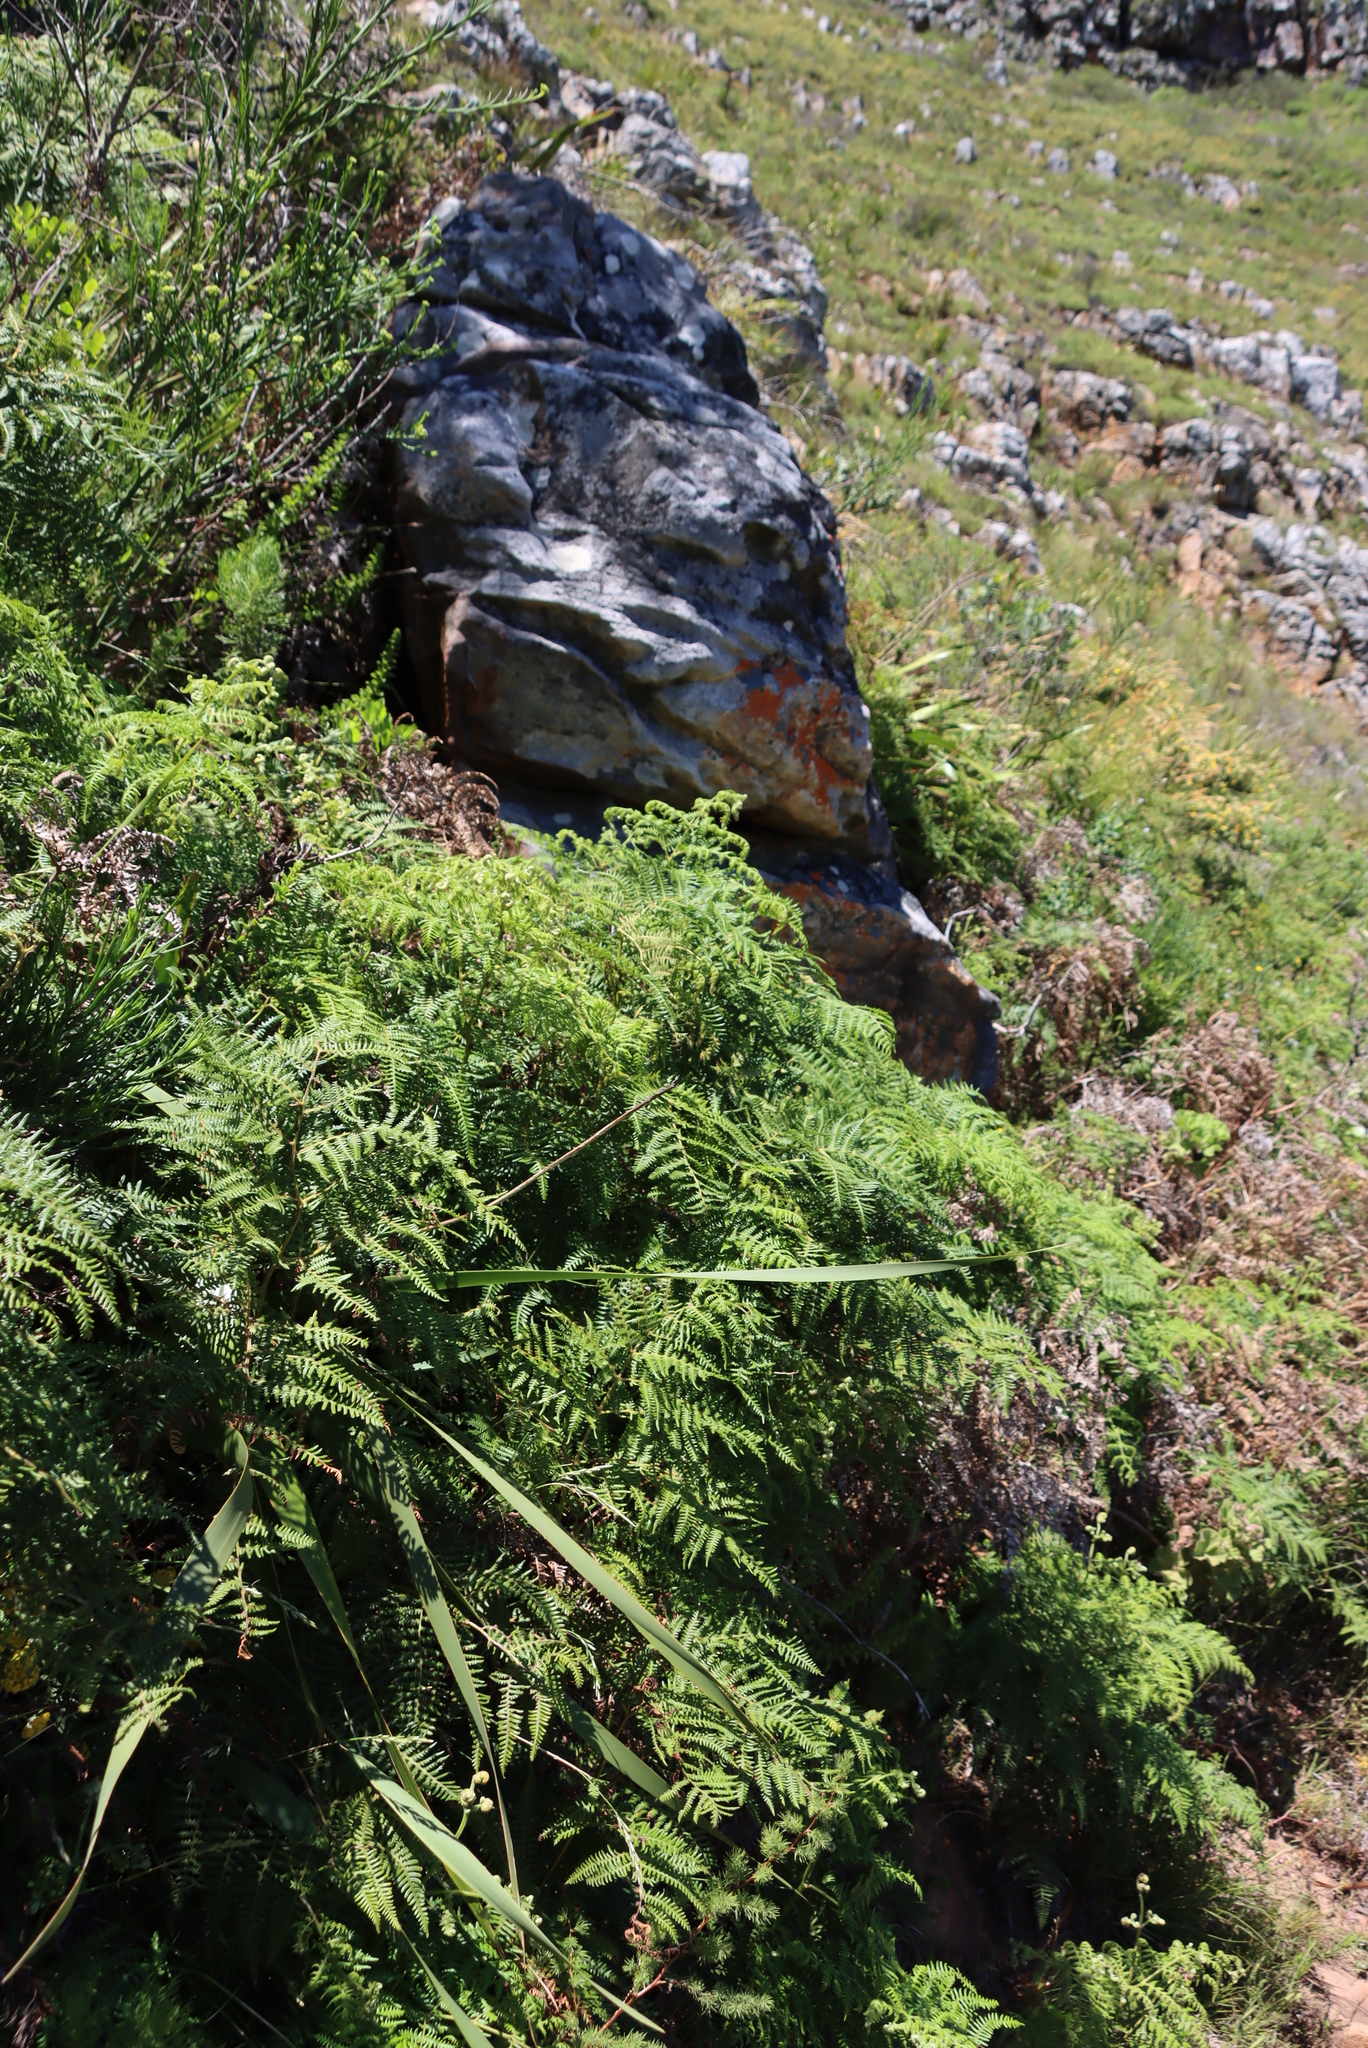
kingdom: Plantae
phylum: Tracheophyta
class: Polypodiopsida
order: Polypodiales
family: Dennstaedtiaceae
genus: Pteridium
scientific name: Pteridium aquilinum
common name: Bracken
